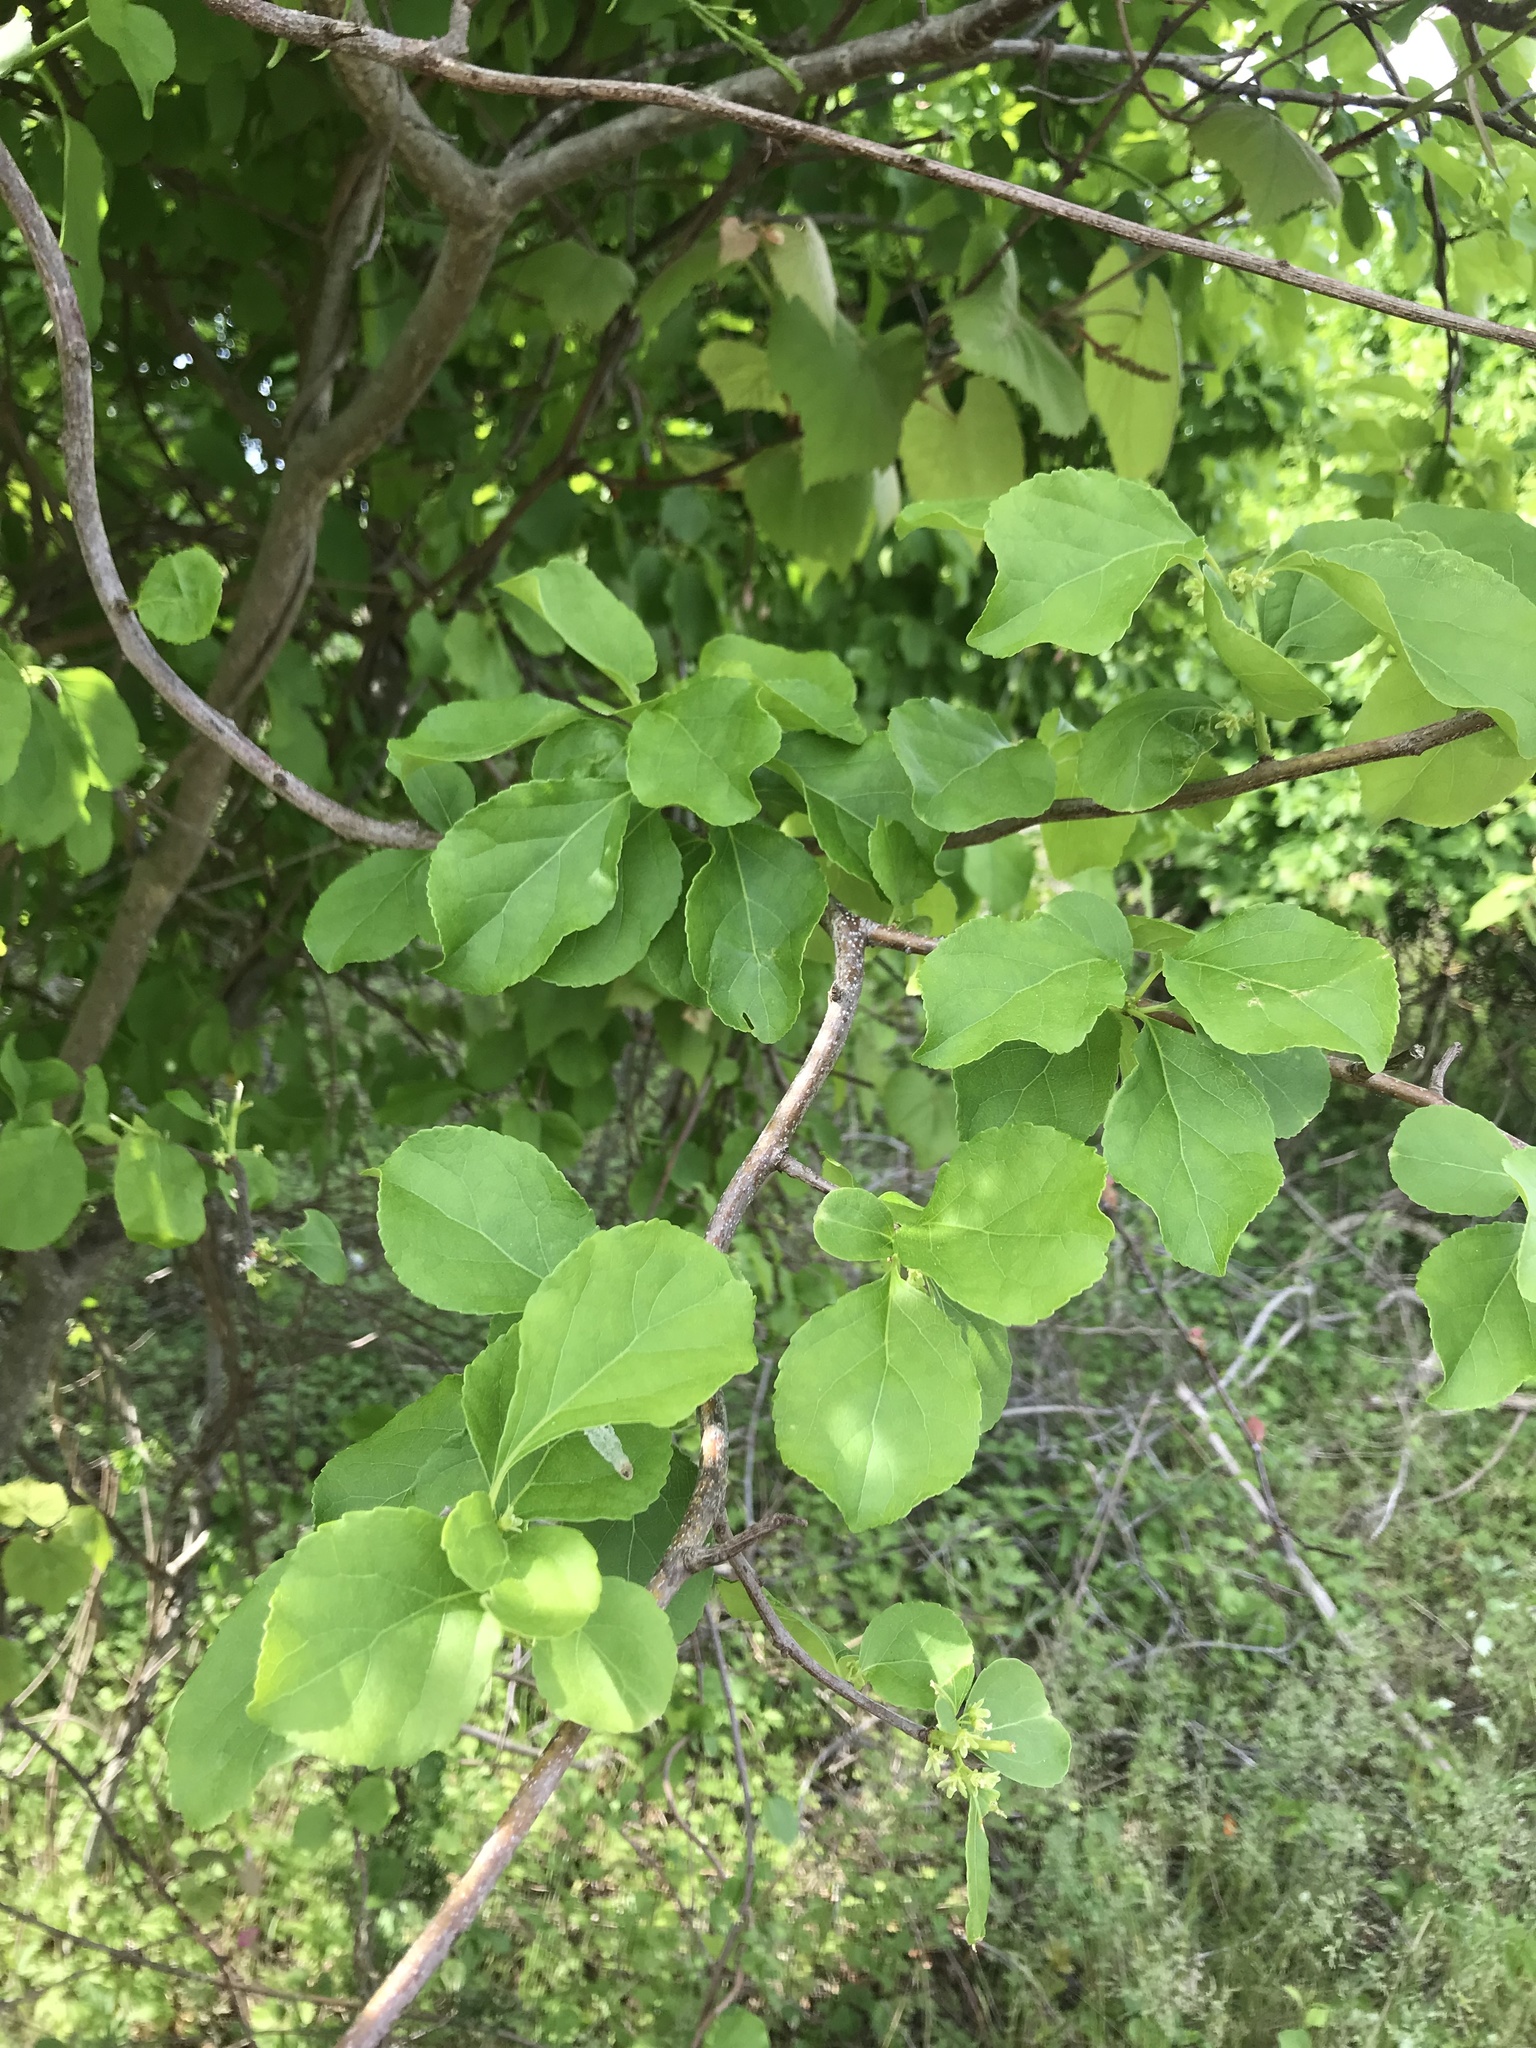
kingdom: Plantae
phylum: Tracheophyta
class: Magnoliopsida
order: Celastrales
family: Celastraceae
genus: Celastrus
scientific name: Celastrus orbiculatus
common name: Oriental bittersweet
